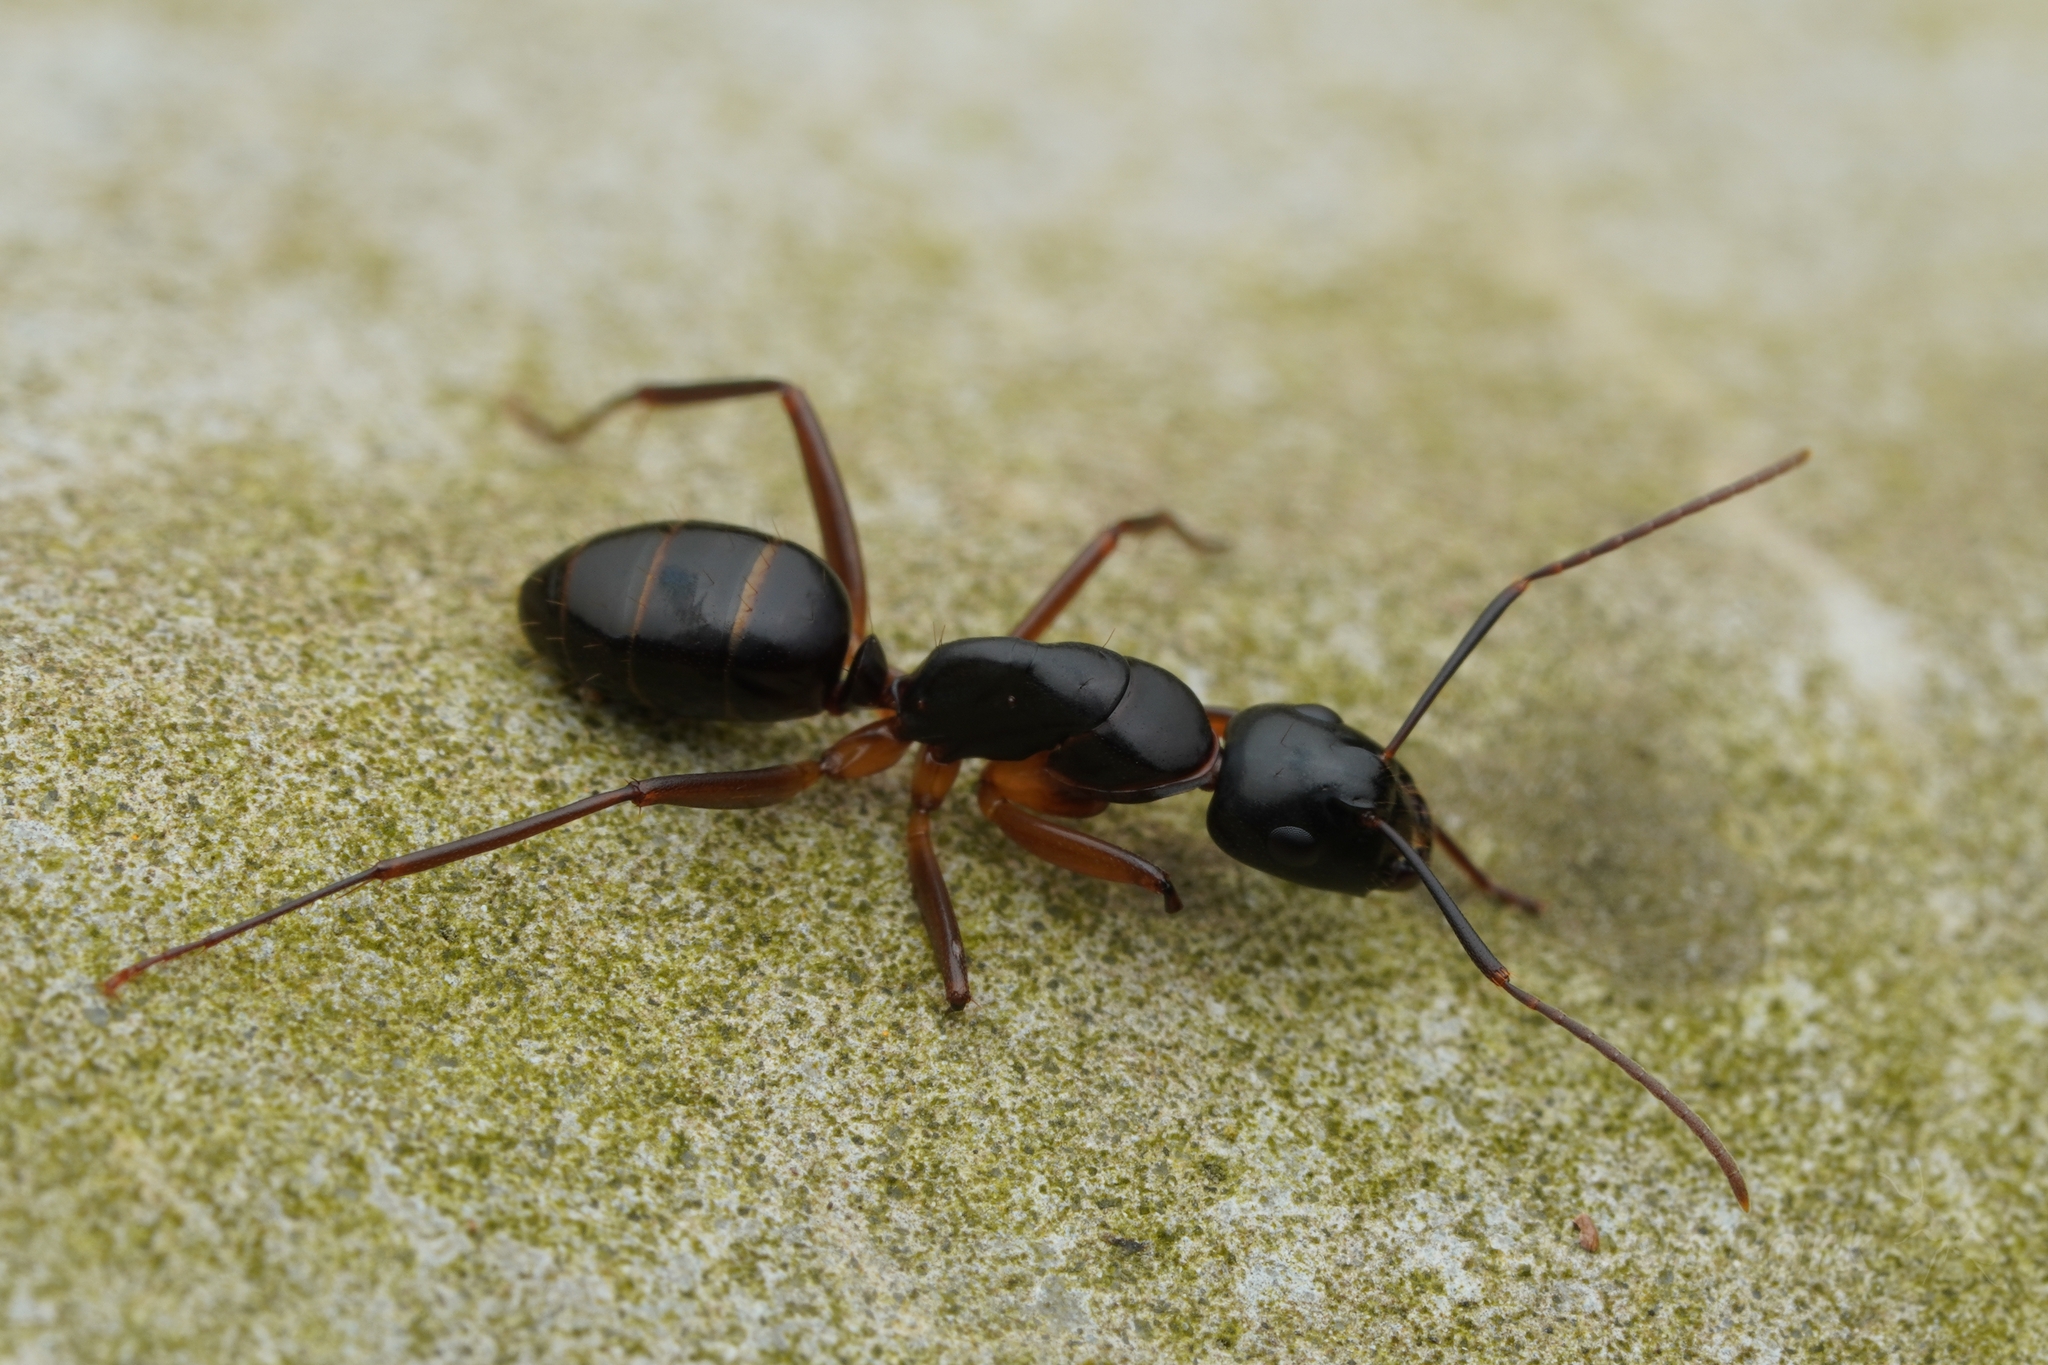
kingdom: Animalia
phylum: Arthropoda
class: Insecta
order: Hymenoptera
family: Formicidae
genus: Camponotus
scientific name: Camponotus kiusiuensis
